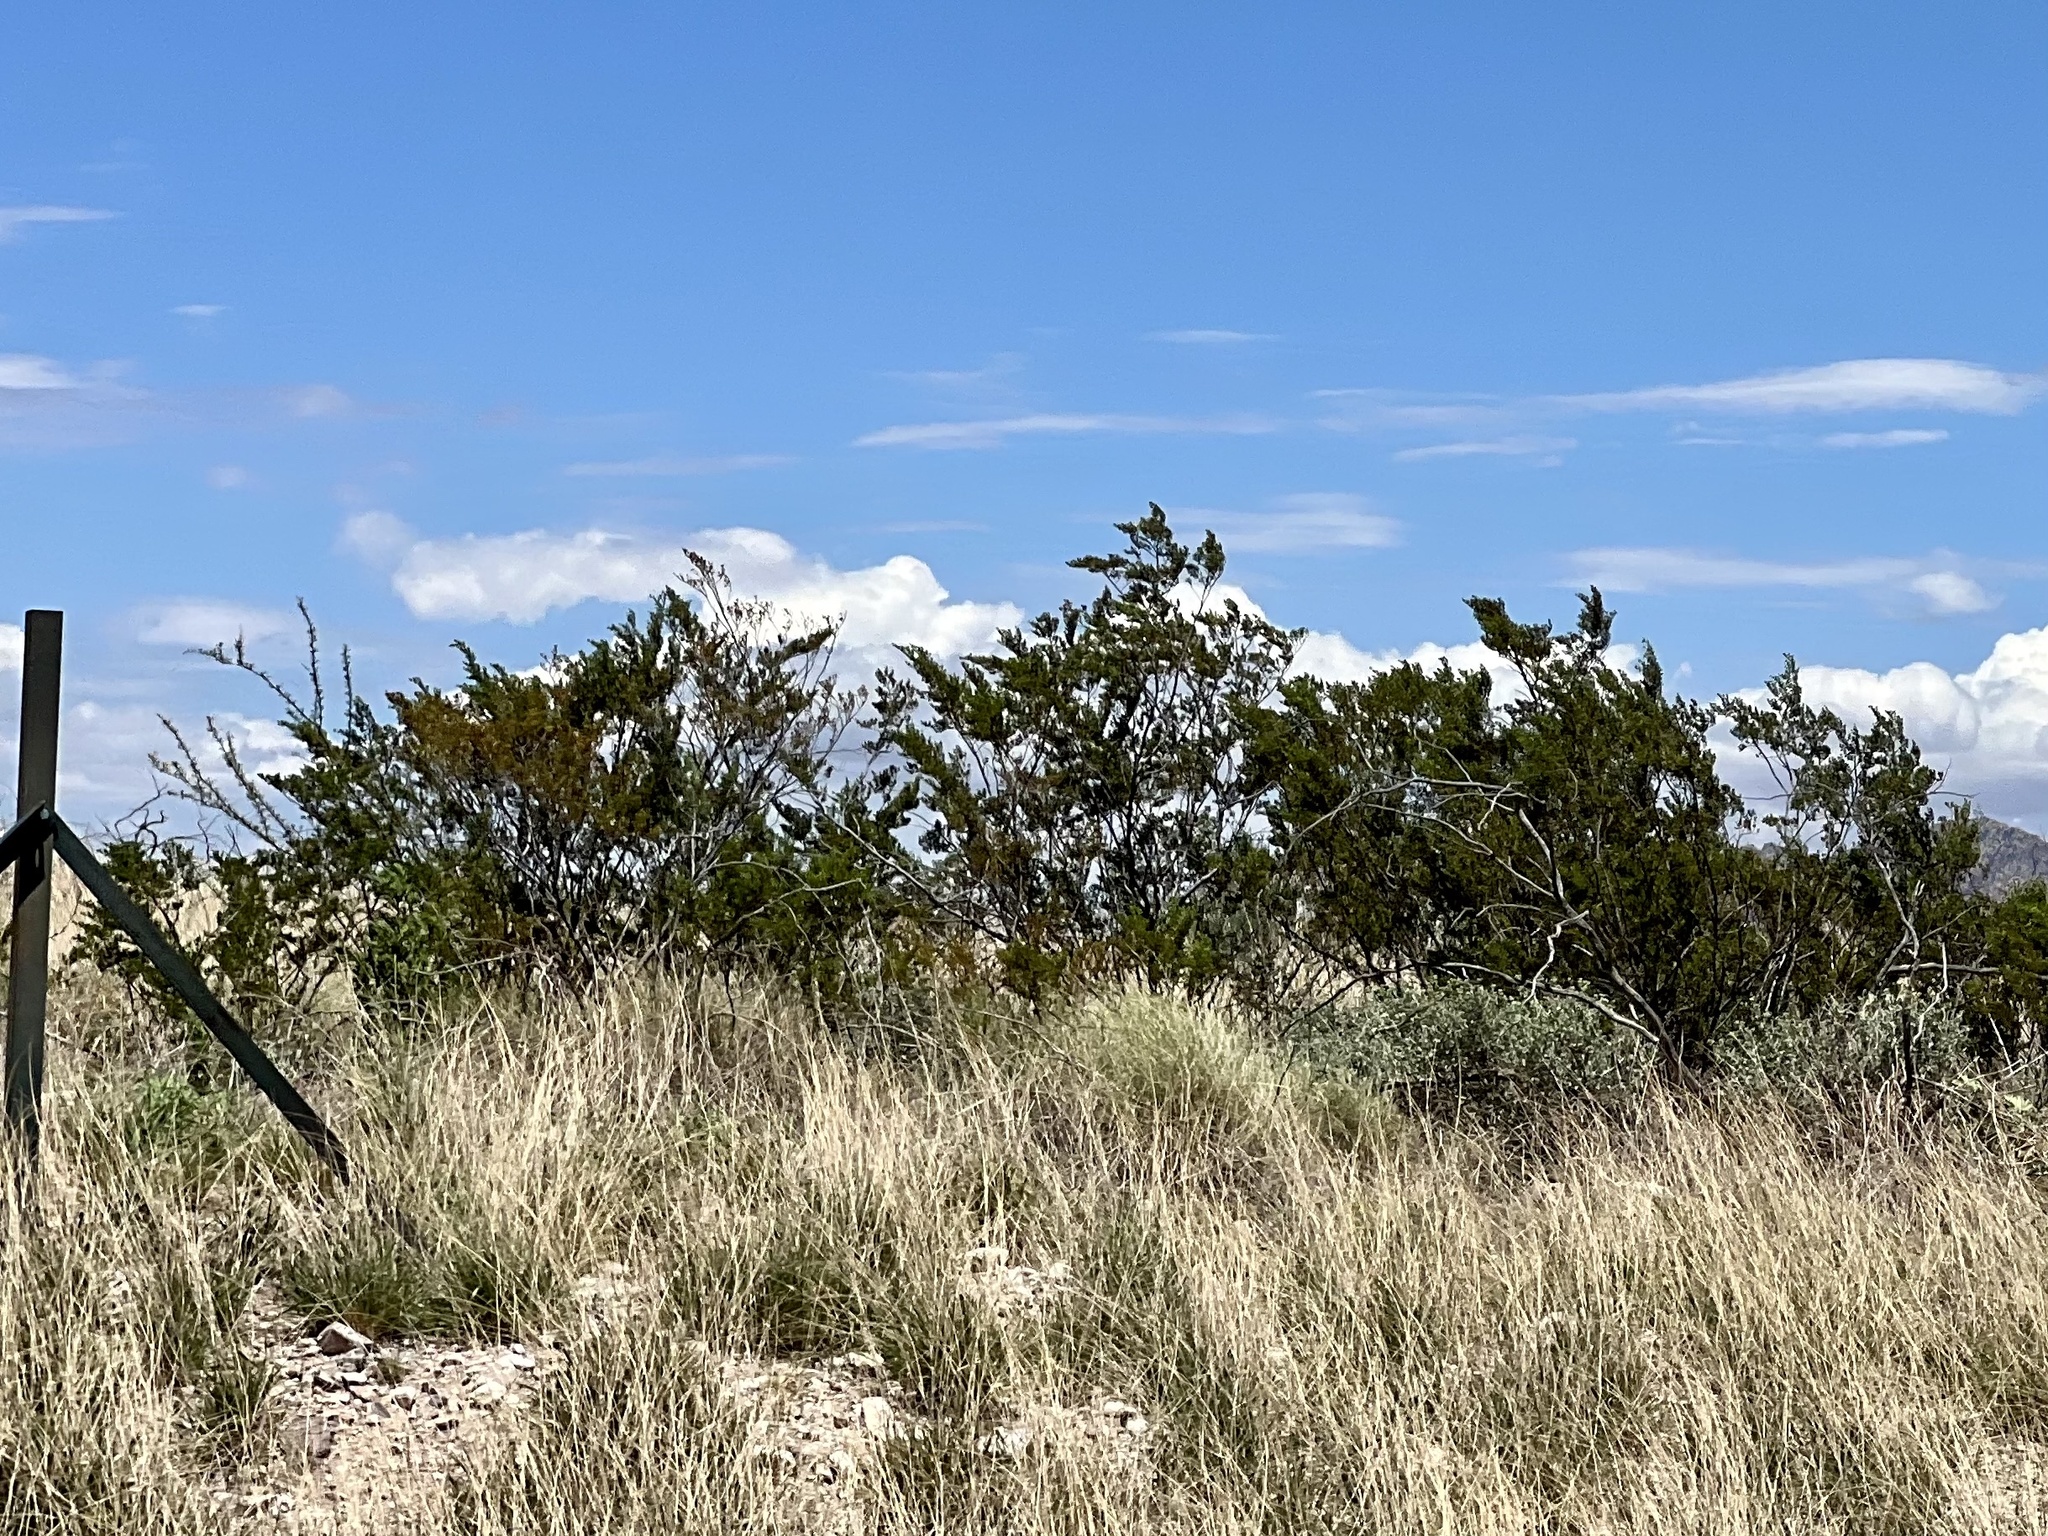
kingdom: Plantae
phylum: Tracheophyta
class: Magnoliopsida
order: Zygophyllales
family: Zygophyllaceae
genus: Larrea
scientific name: Larrea tridentata
